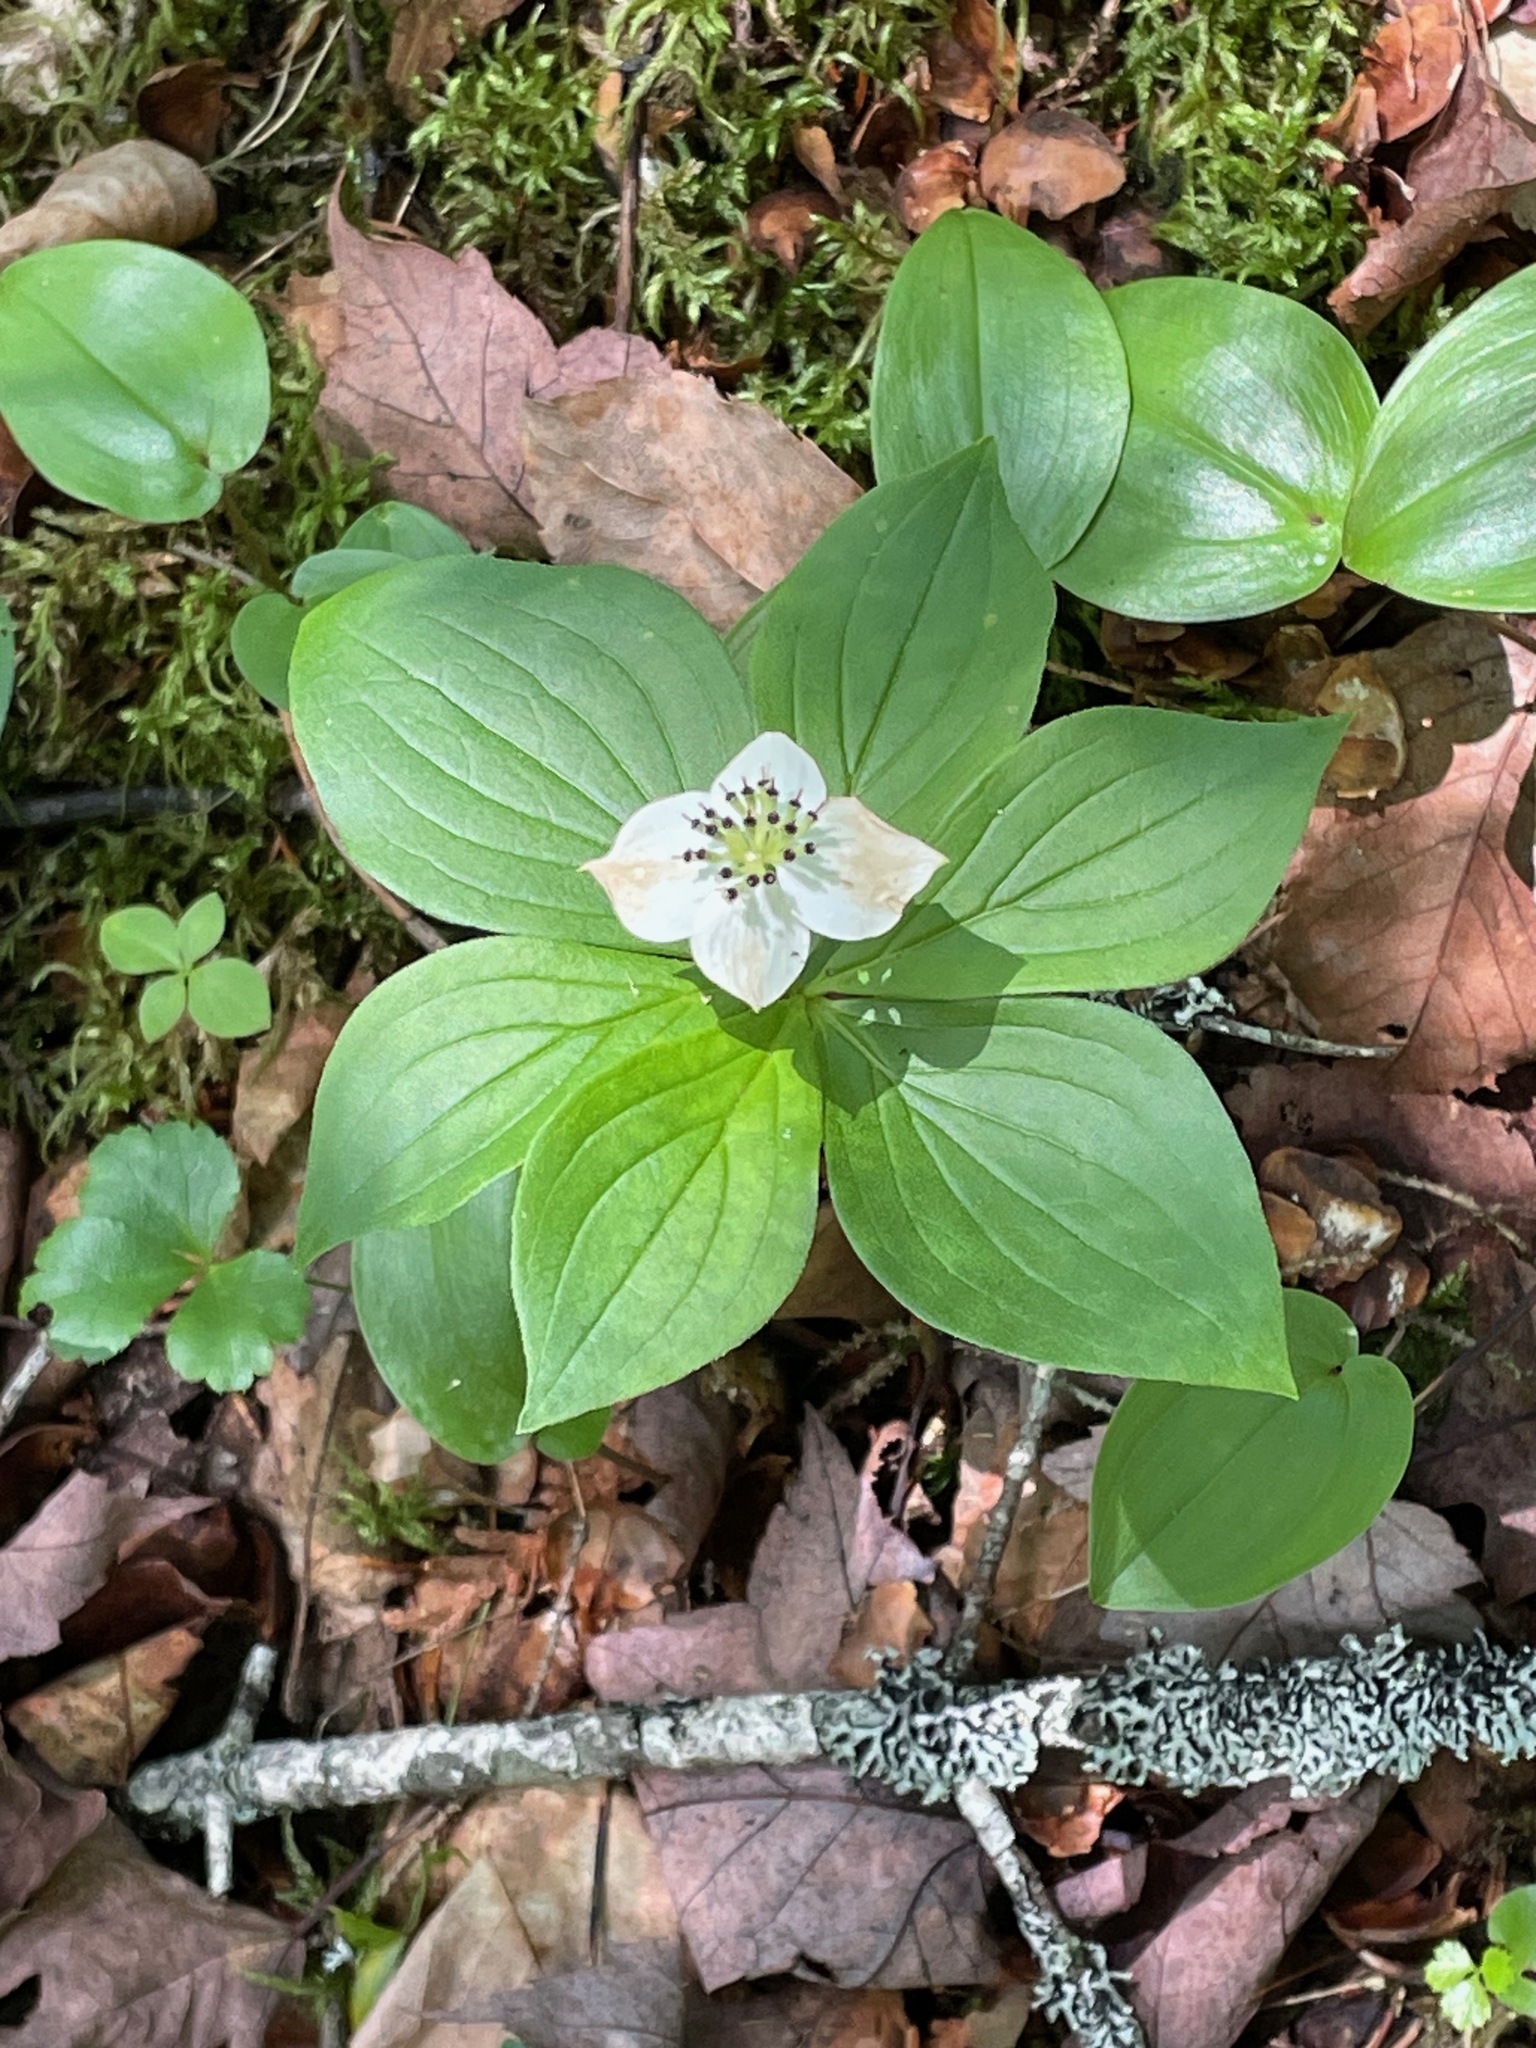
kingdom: Plantae
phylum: Tracheophyta
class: Magnoliopsida
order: Cornales
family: Cornaceae
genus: Cornus
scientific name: Cornus canadensis
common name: Creeping dogwood
